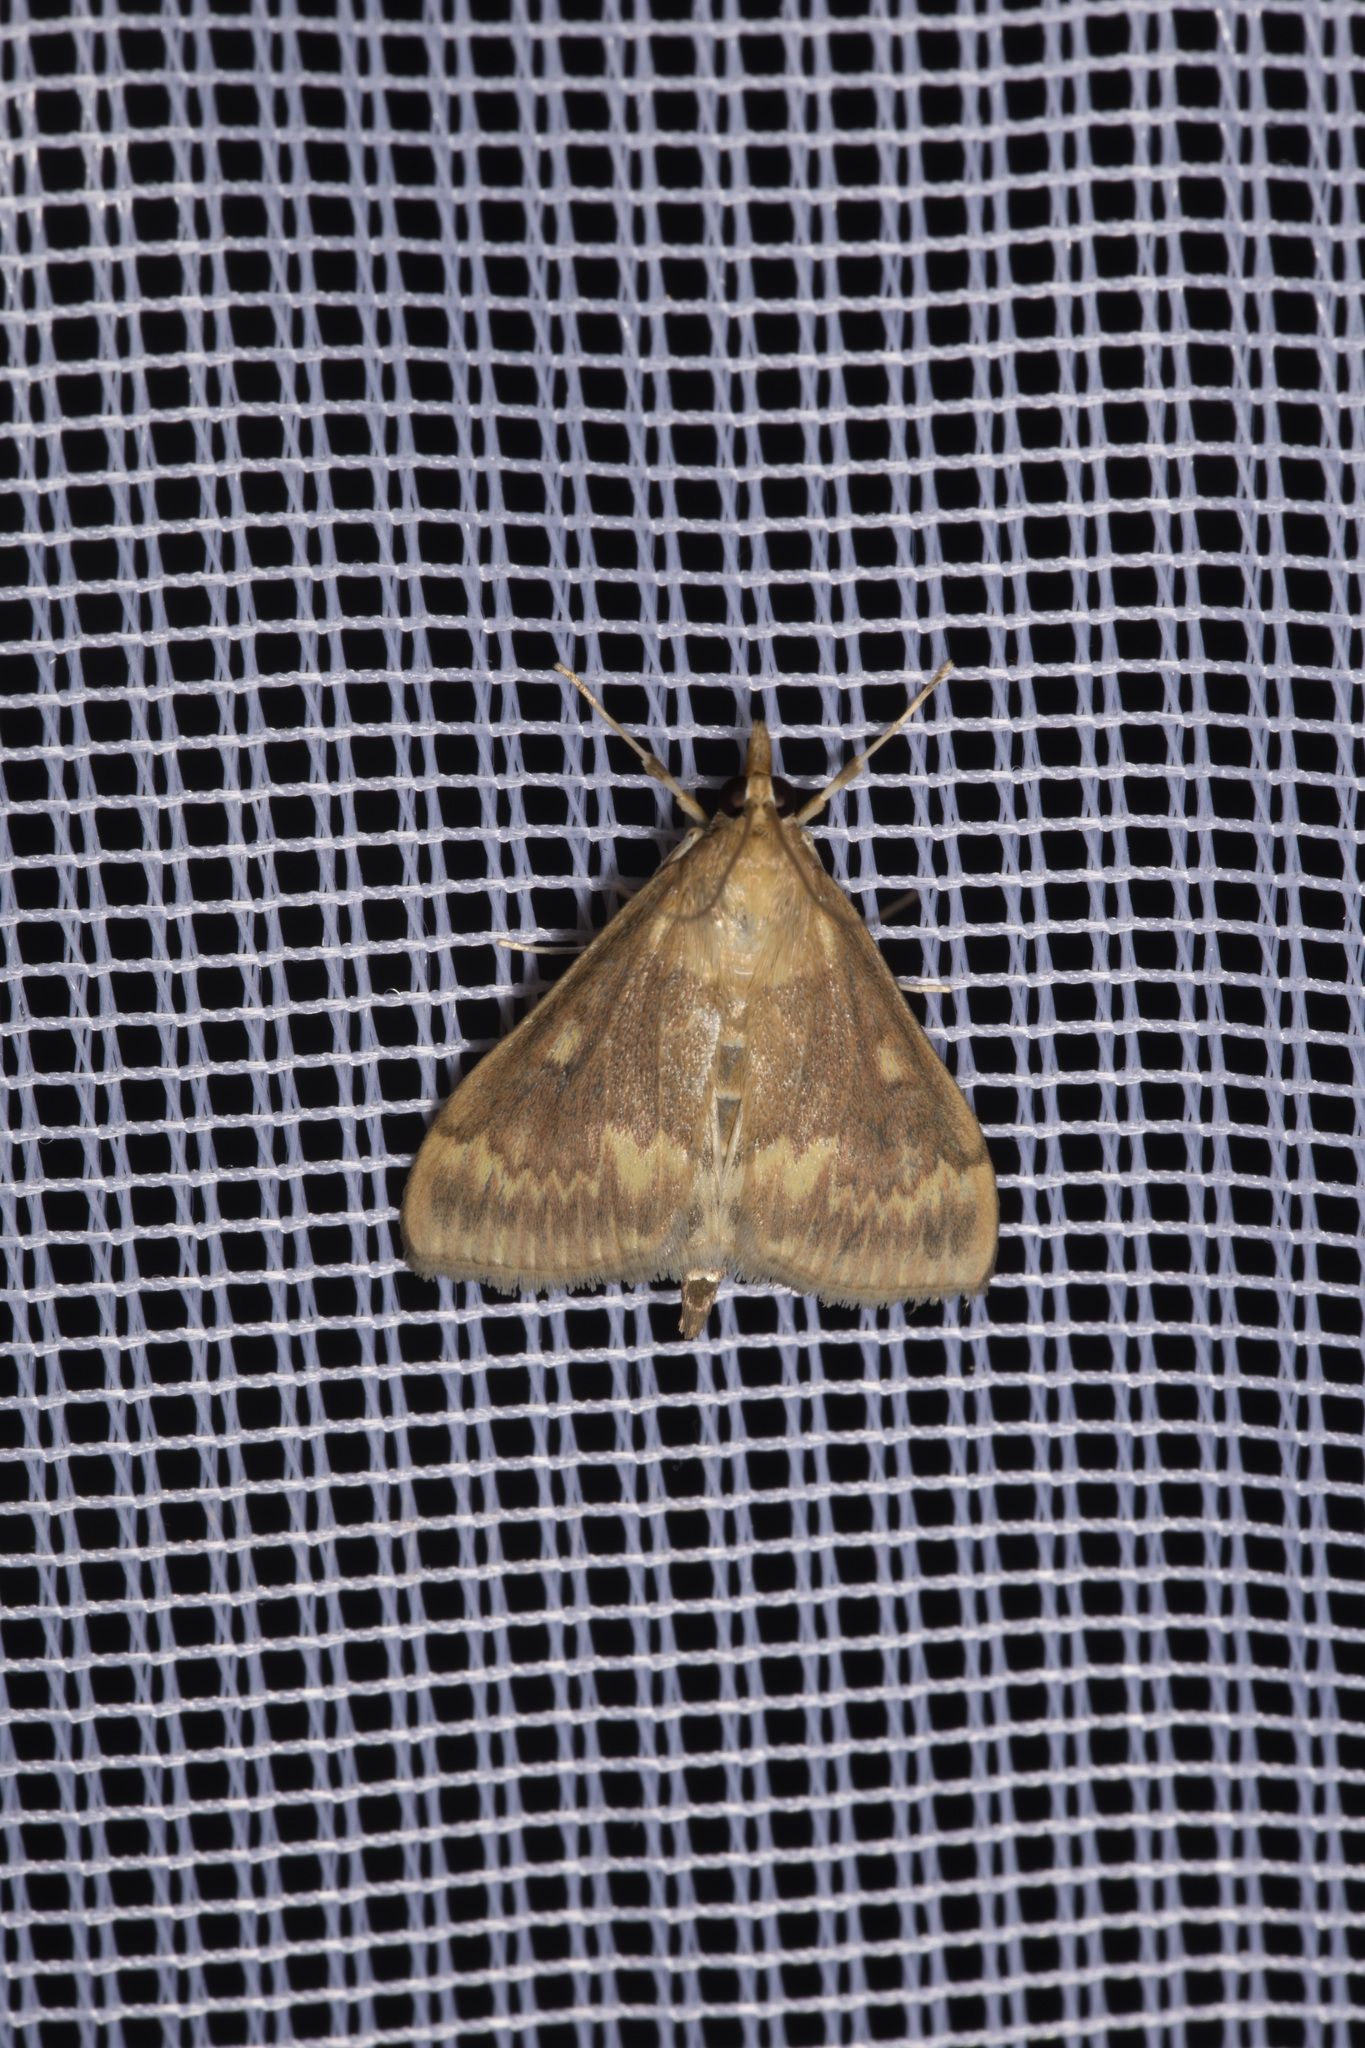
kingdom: Animalia
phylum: Arthropoda
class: Insecta
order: Lepidoptera
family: Crambidae
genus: Ostrinia
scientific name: Ostrinia nubilalis
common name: European corn borer
